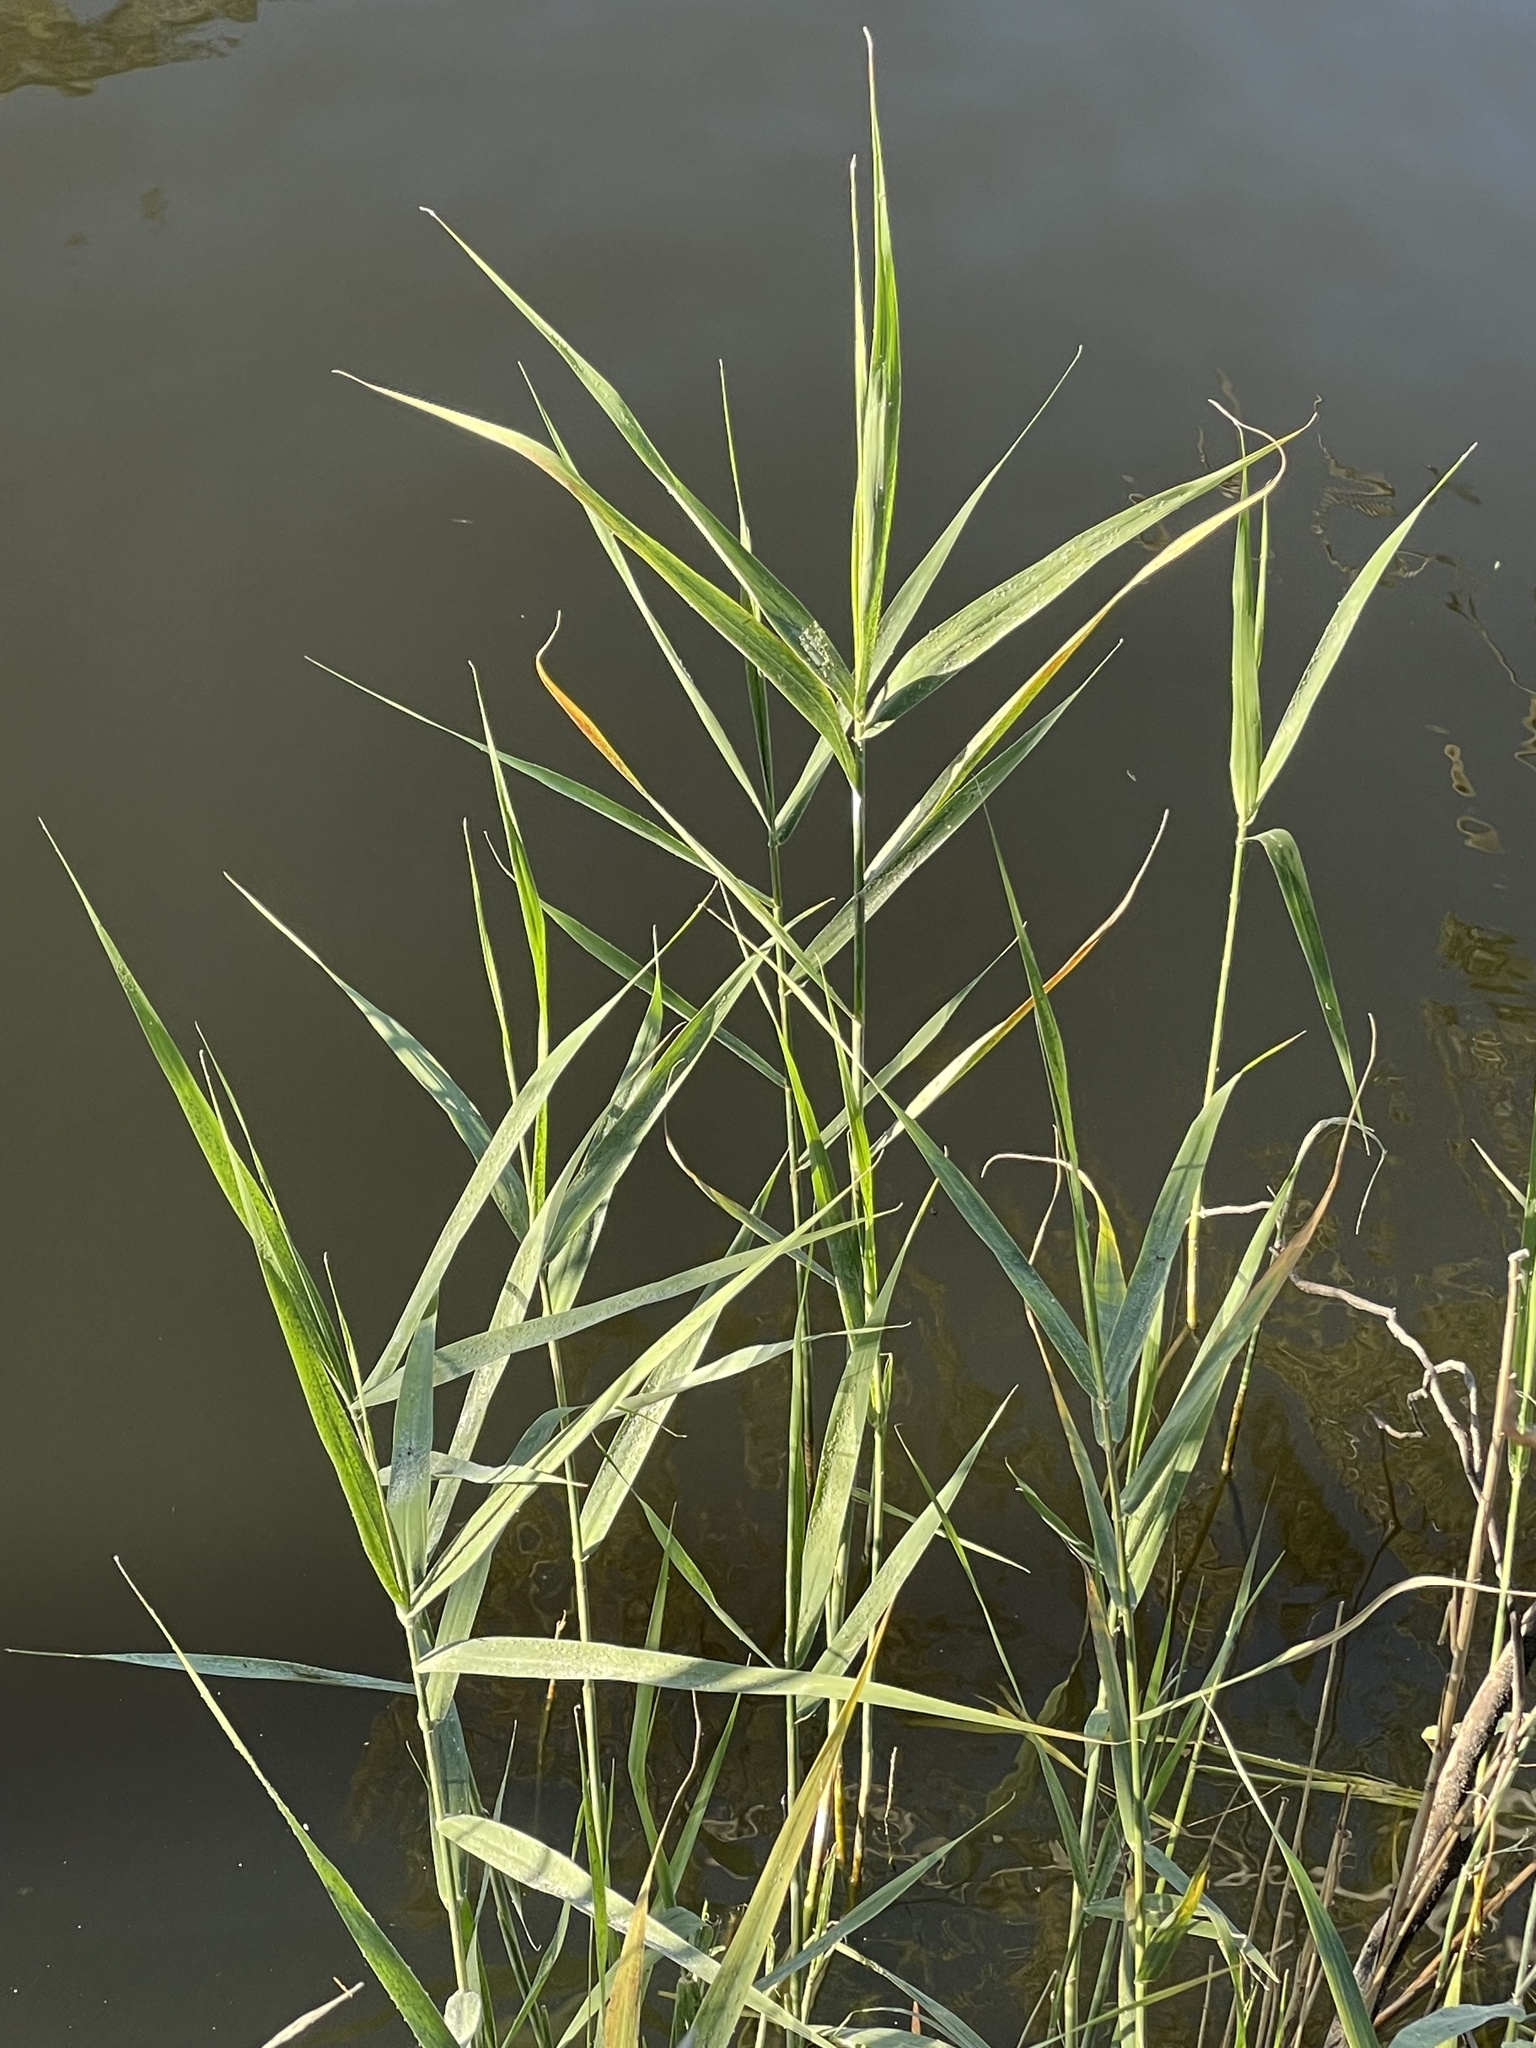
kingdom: Plantae
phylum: Tracheophyta
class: Liliopsida
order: Poales
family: Poaceae
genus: Phragmites
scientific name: Phragmites australis
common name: Common reed
